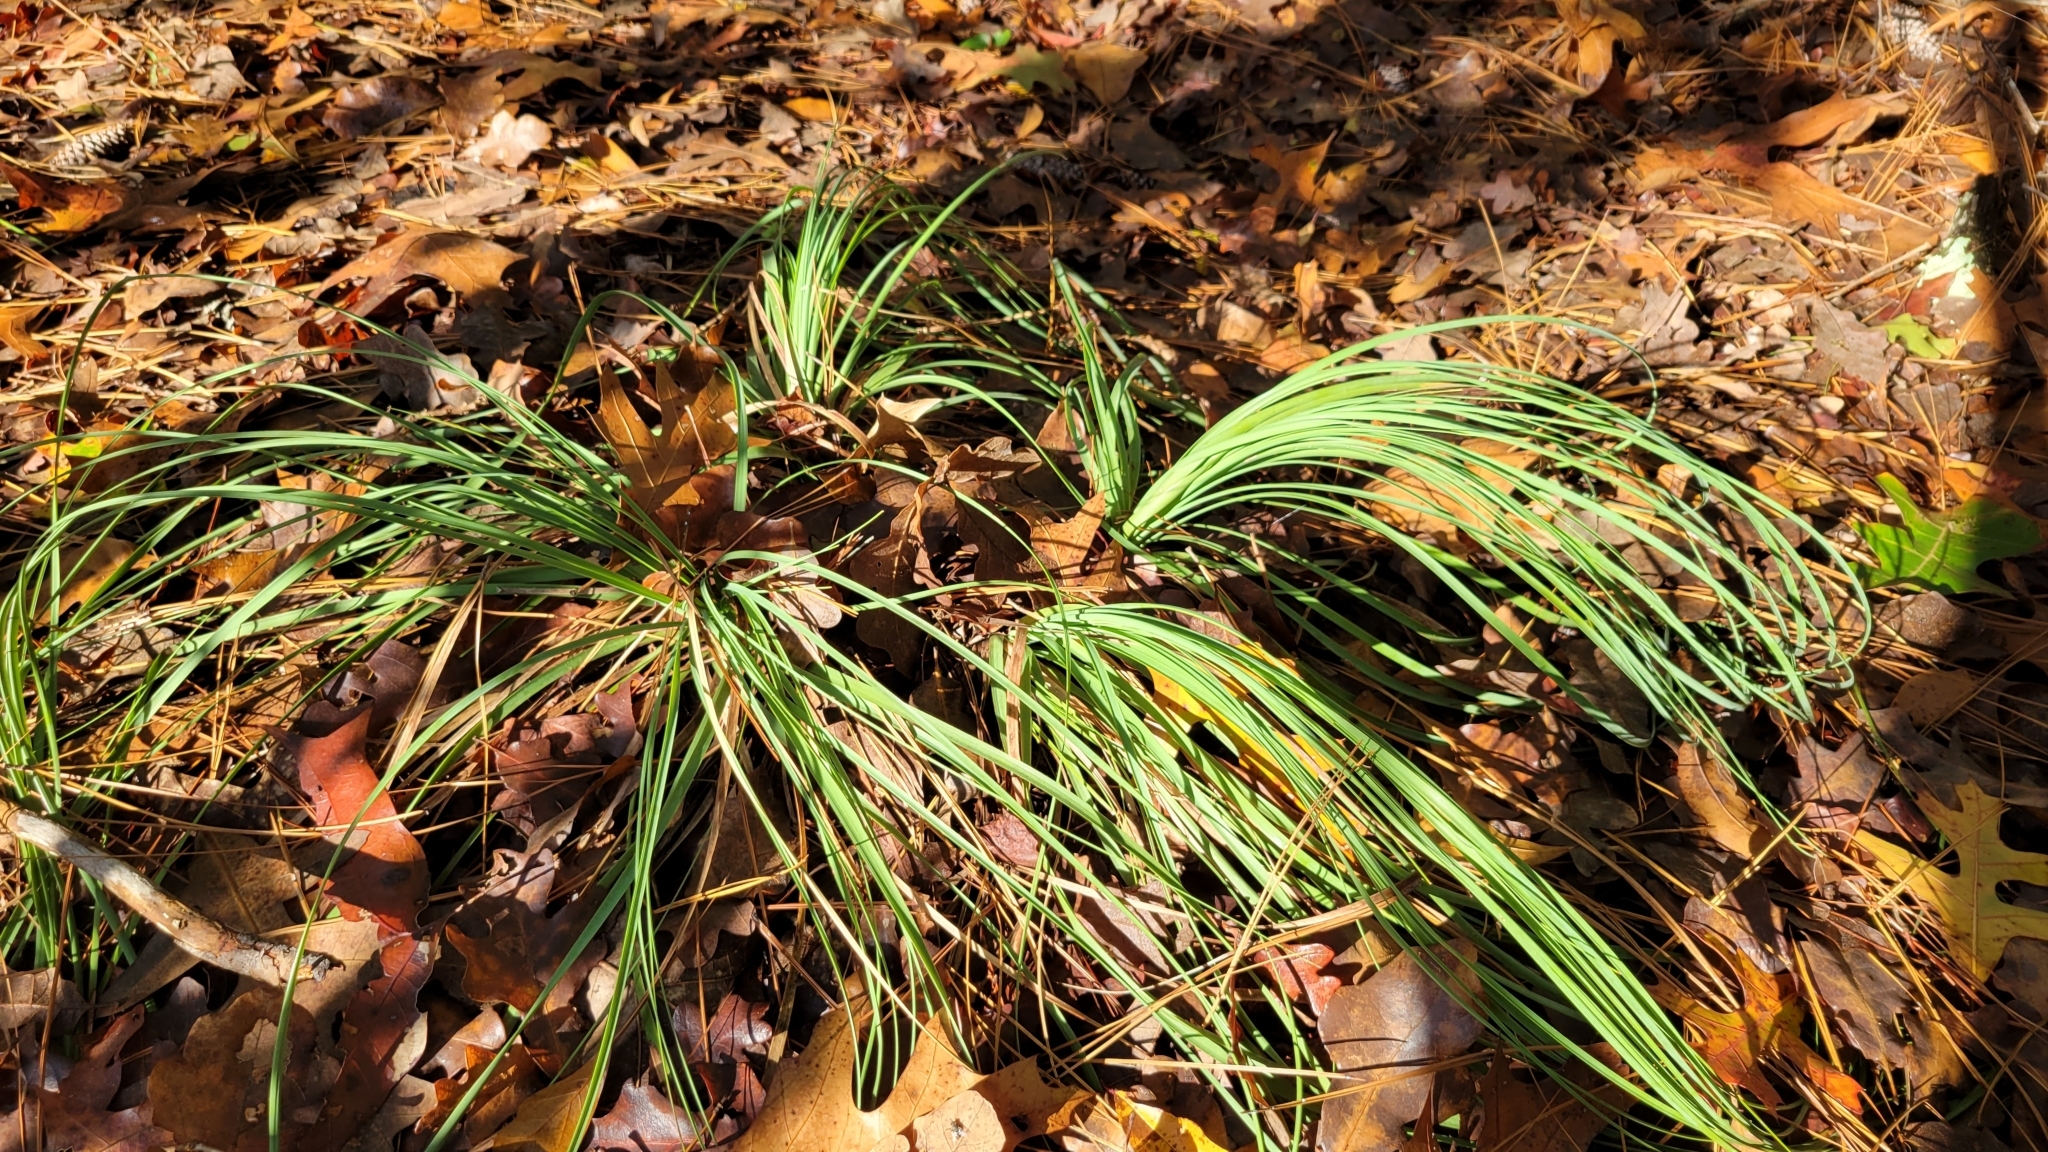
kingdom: Plantae
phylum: Tracheophyta
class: Liliopsida
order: Asparagales
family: Asparagaceae
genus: Nolina
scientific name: Nolina georgiana
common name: Georgia bear-grass
